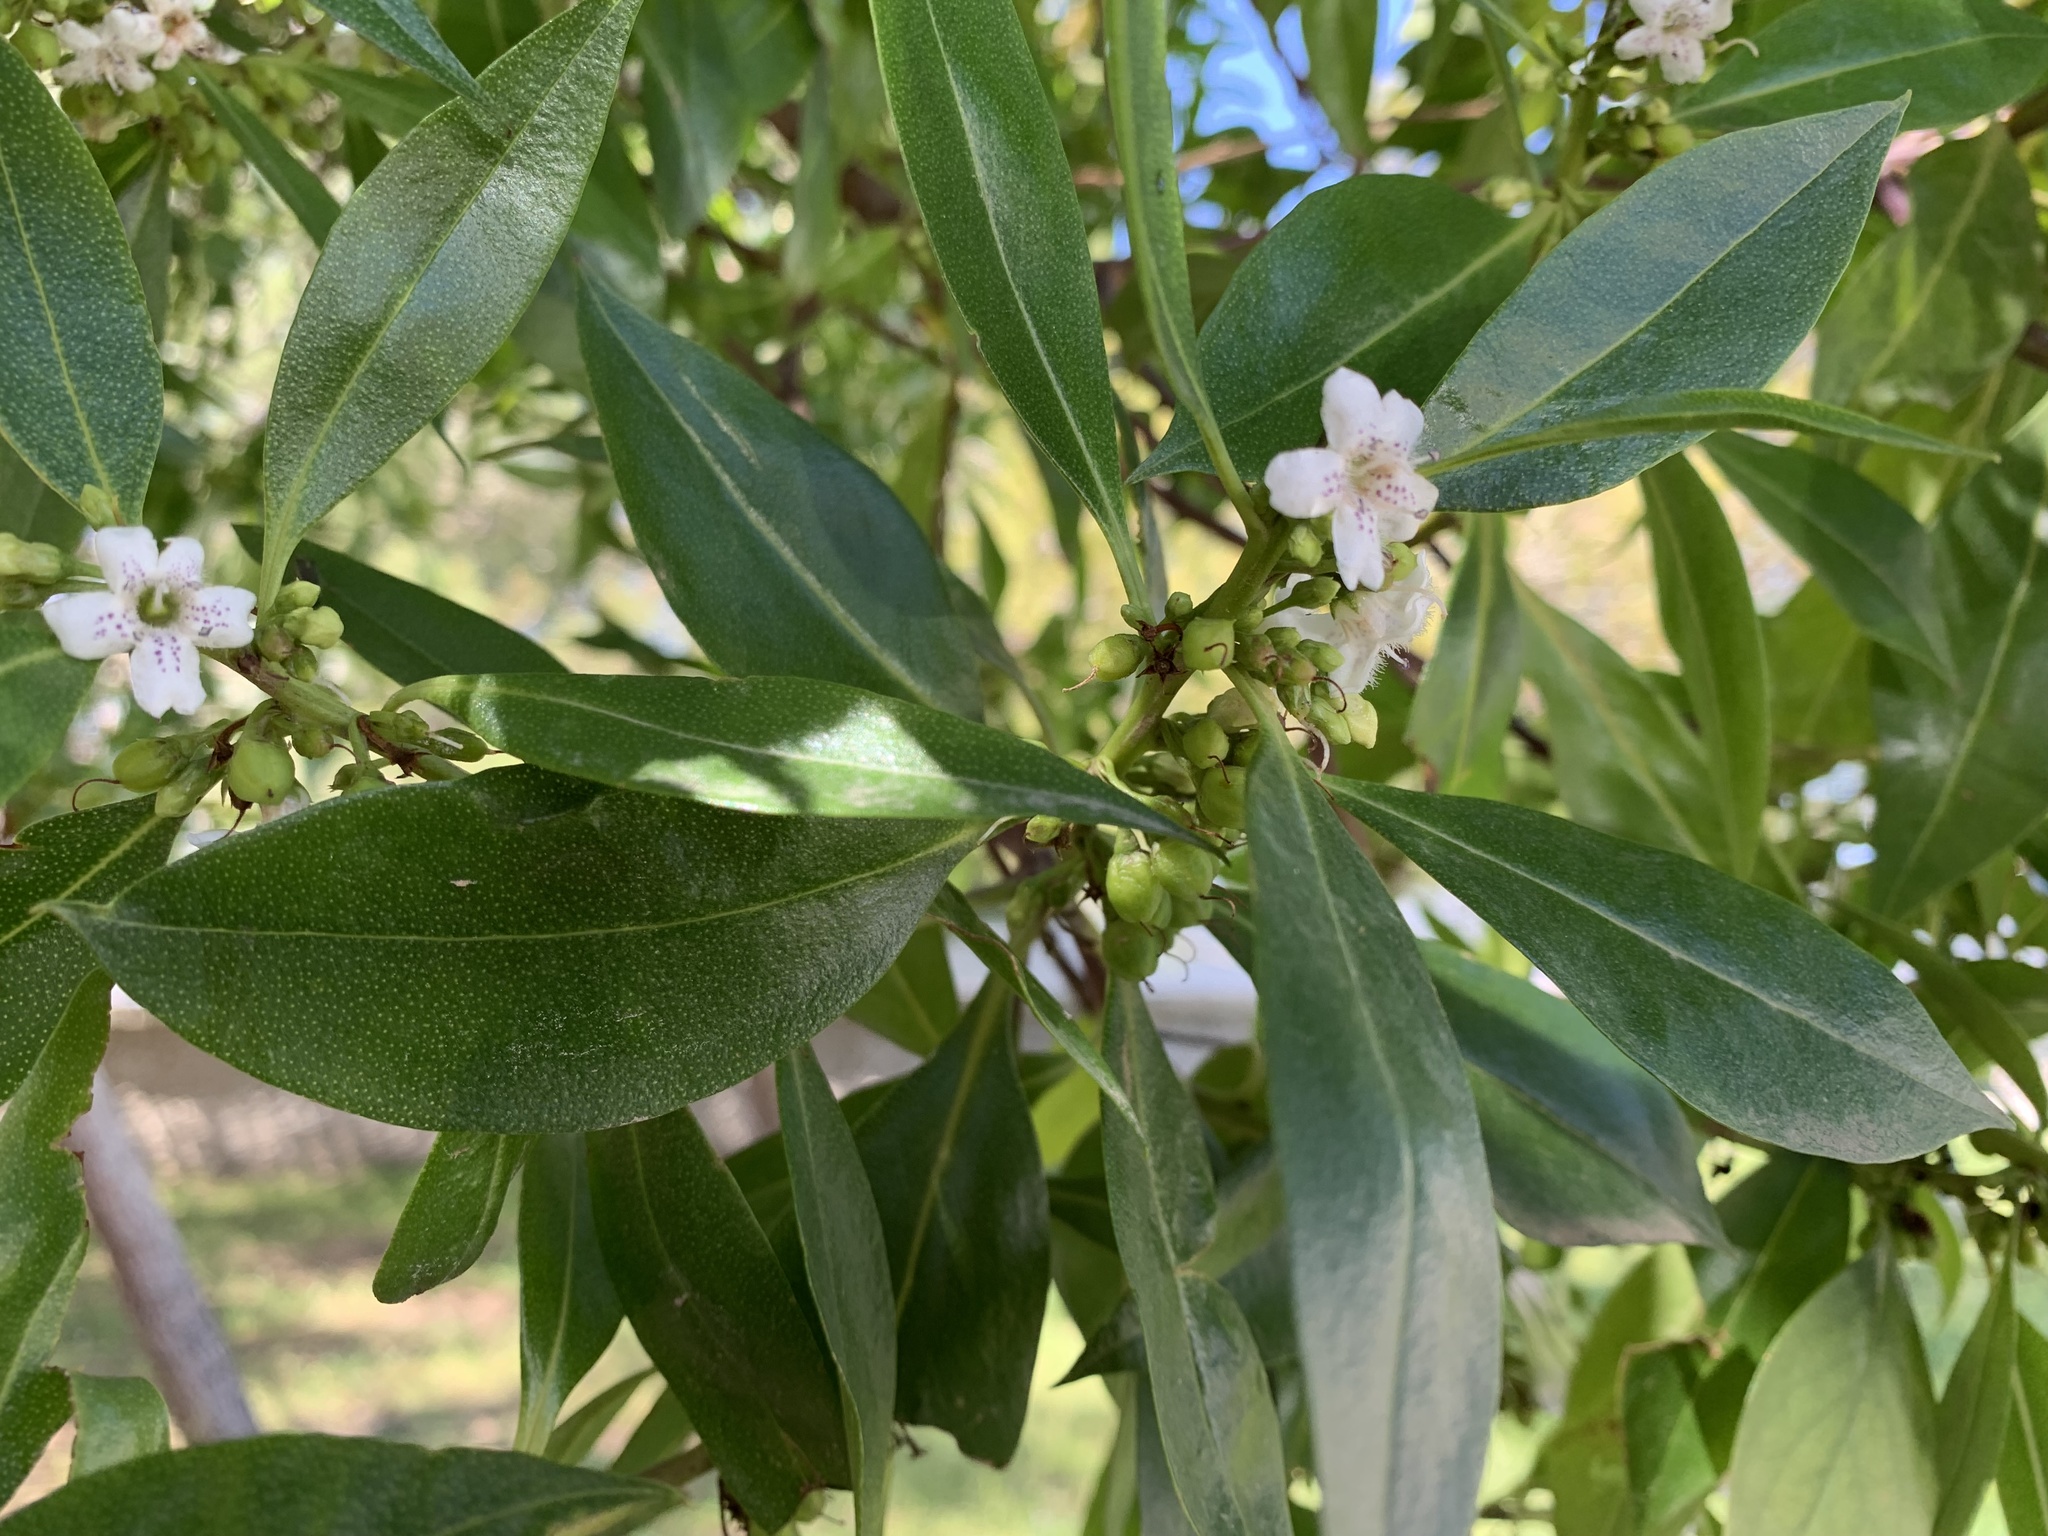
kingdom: Plantae
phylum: Tracheophyta
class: Magnoliopsida
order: Lamiales
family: Scrophulariaceae
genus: Myoporum
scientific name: Myoporum laetum
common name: Ngaio tree
